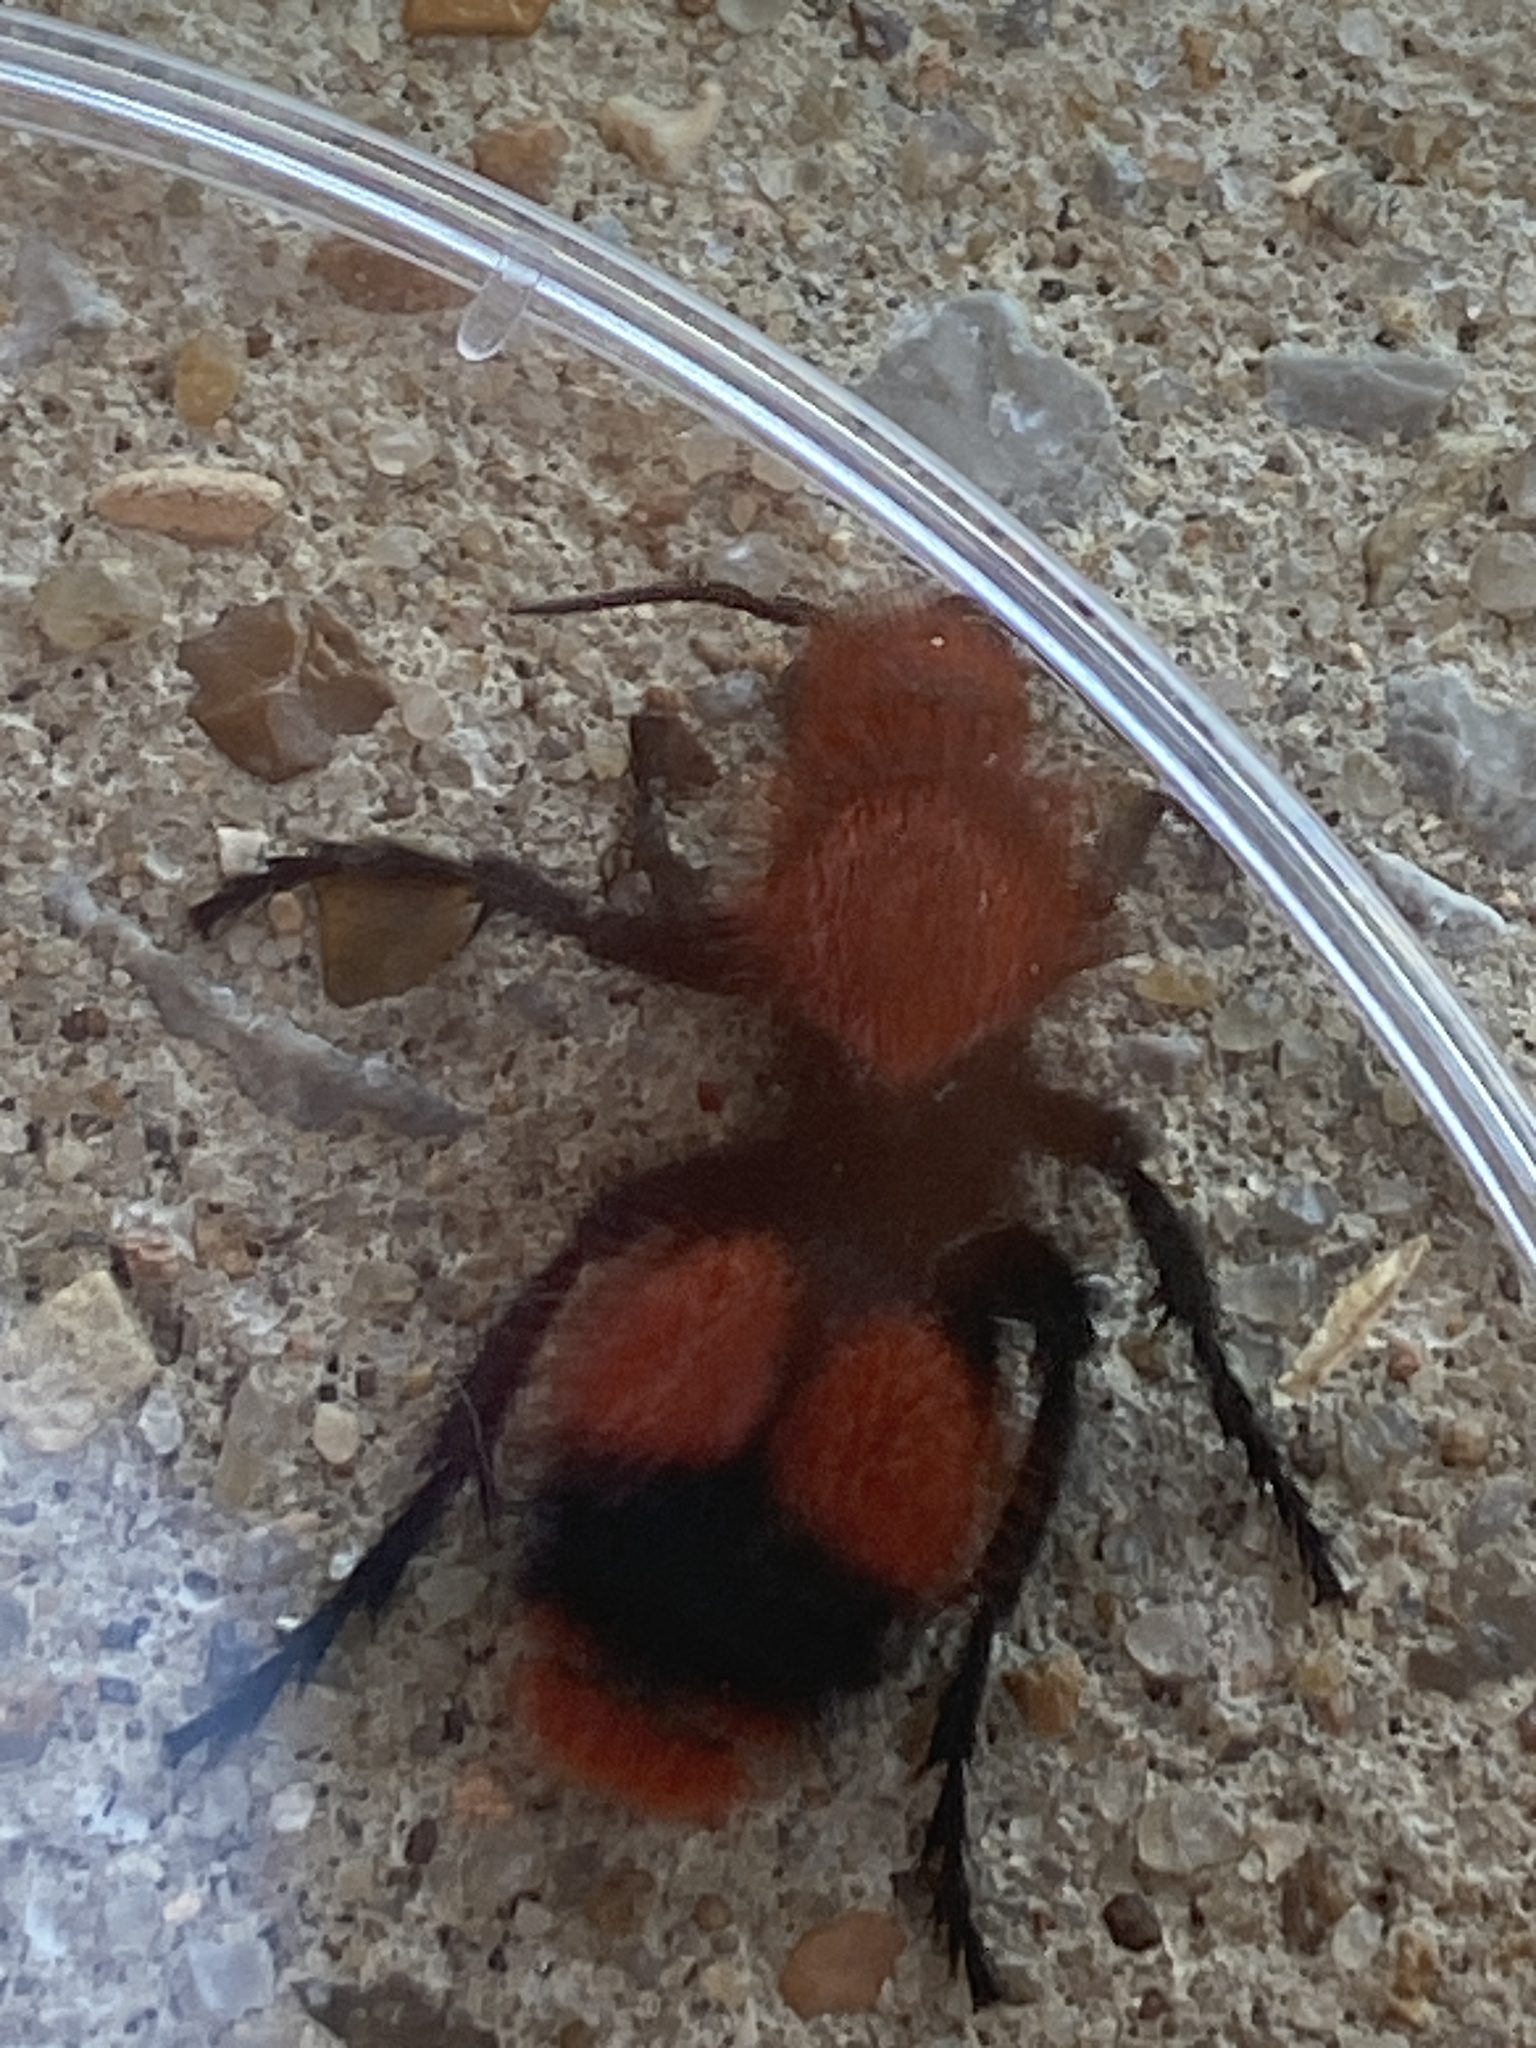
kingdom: Animalia
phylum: Arthropoda
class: Insecta
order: Hymenoptera
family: Mutillidae
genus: Dasymutilla
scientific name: Dasymutilla occidentalis
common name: Common eastern velvet ant
